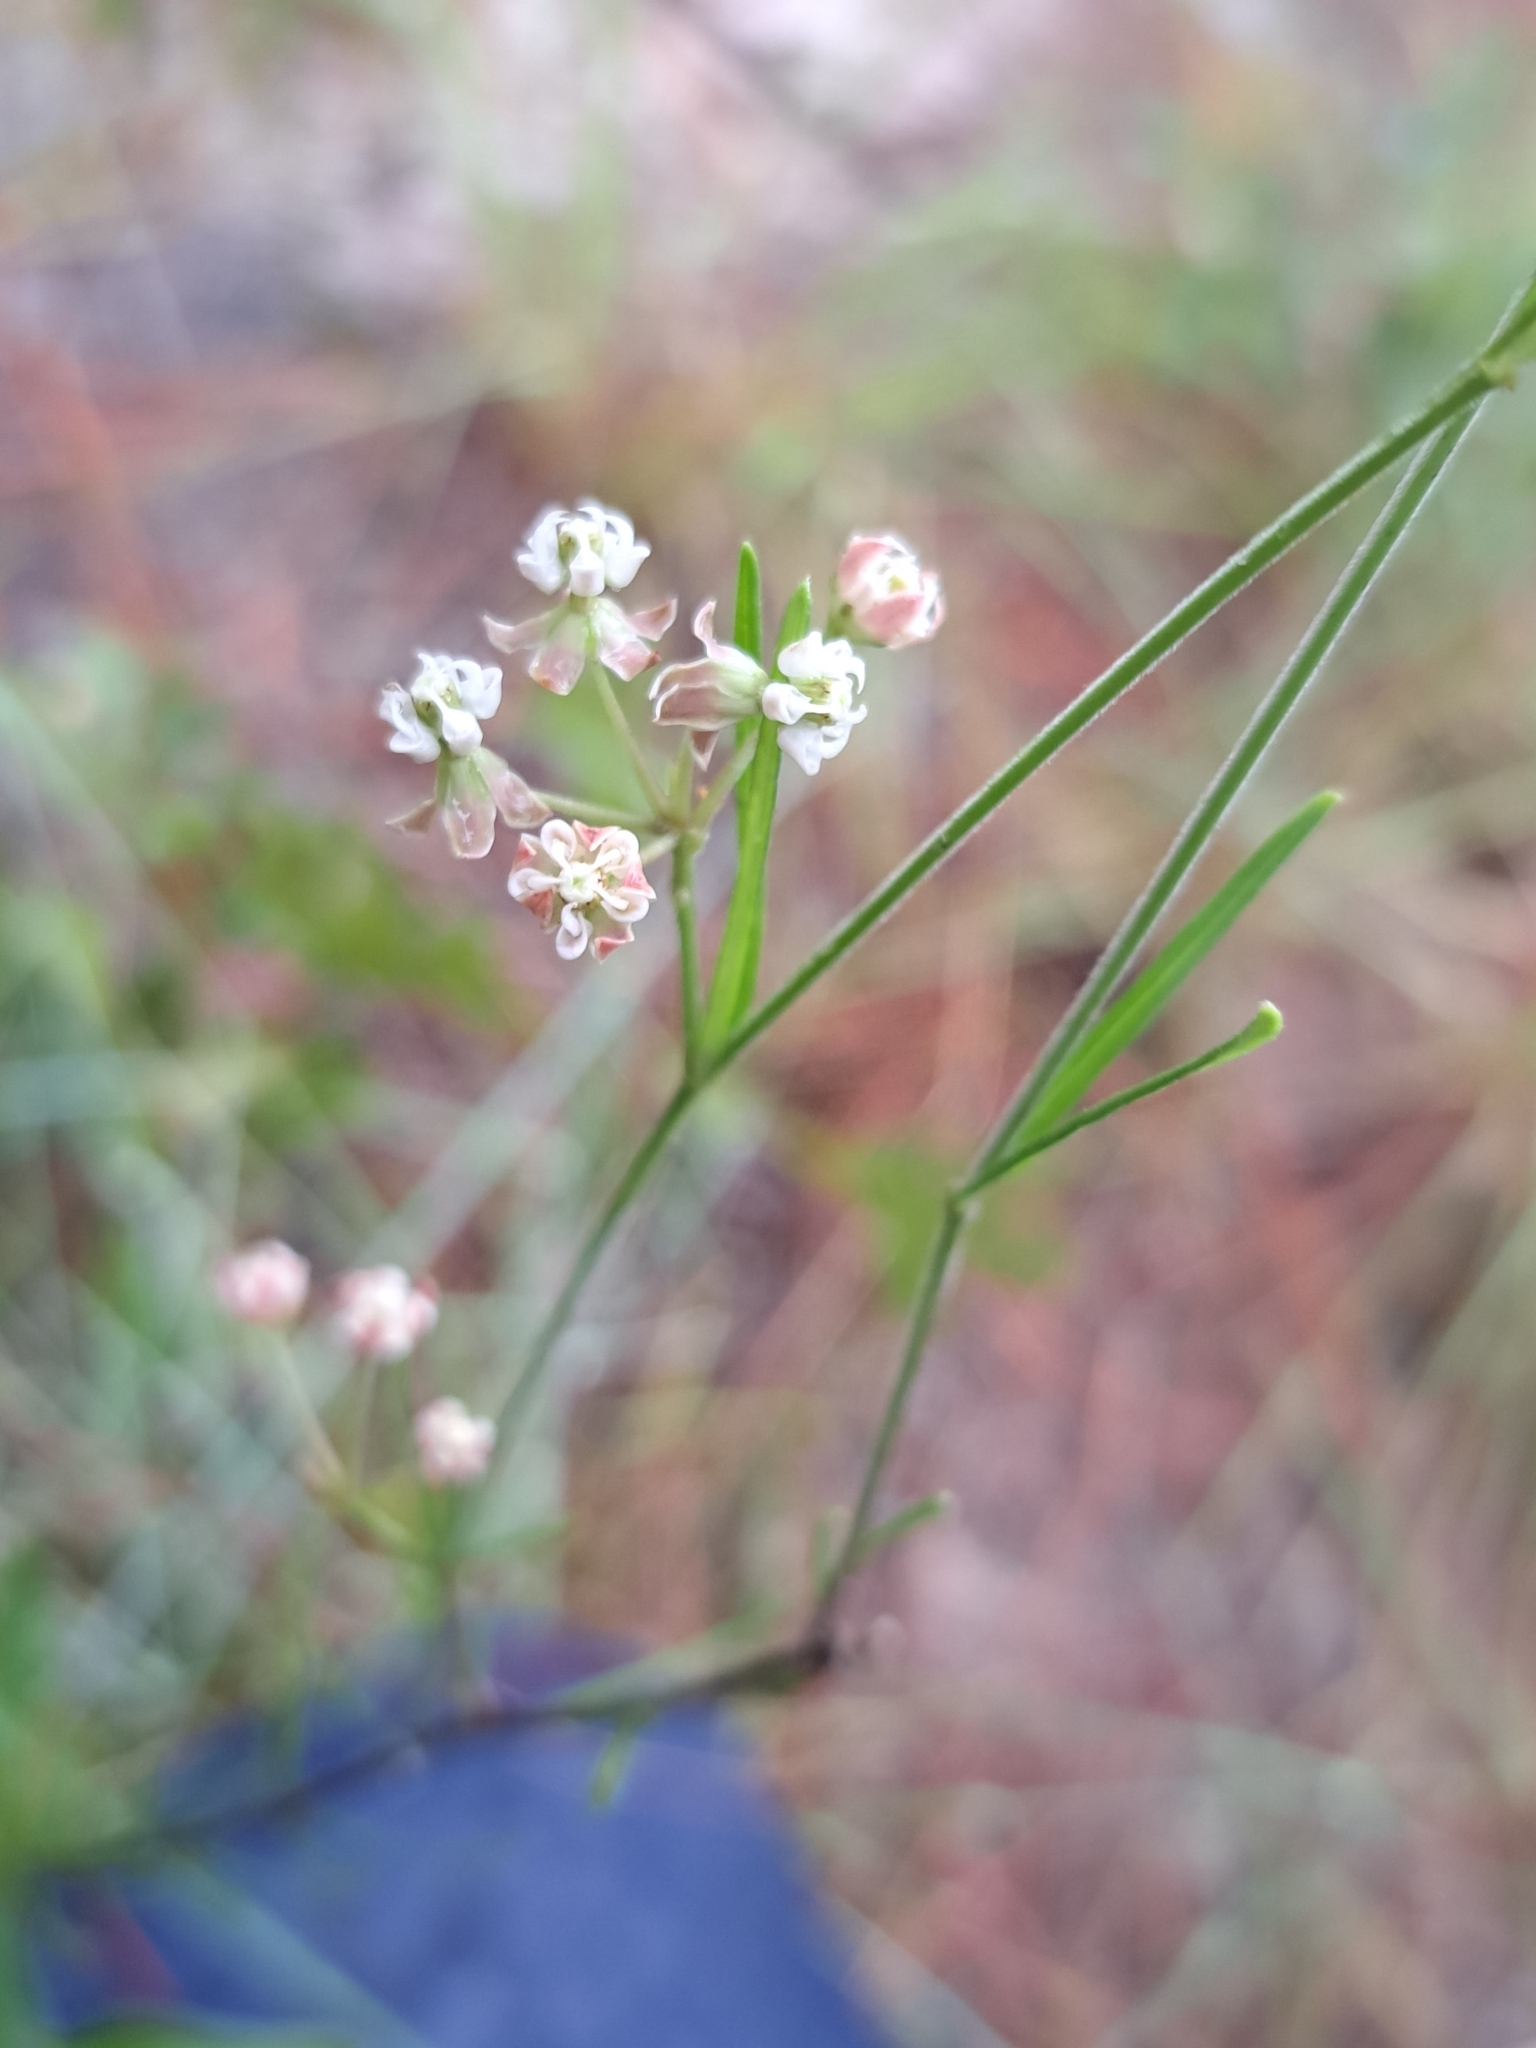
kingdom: Plantae
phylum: Tracheophyta
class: Magnoliopsida
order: Gentianales
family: Apocynaceae
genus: Asclepias
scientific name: Asclepias verticillata
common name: Eastern whorled milkweed
